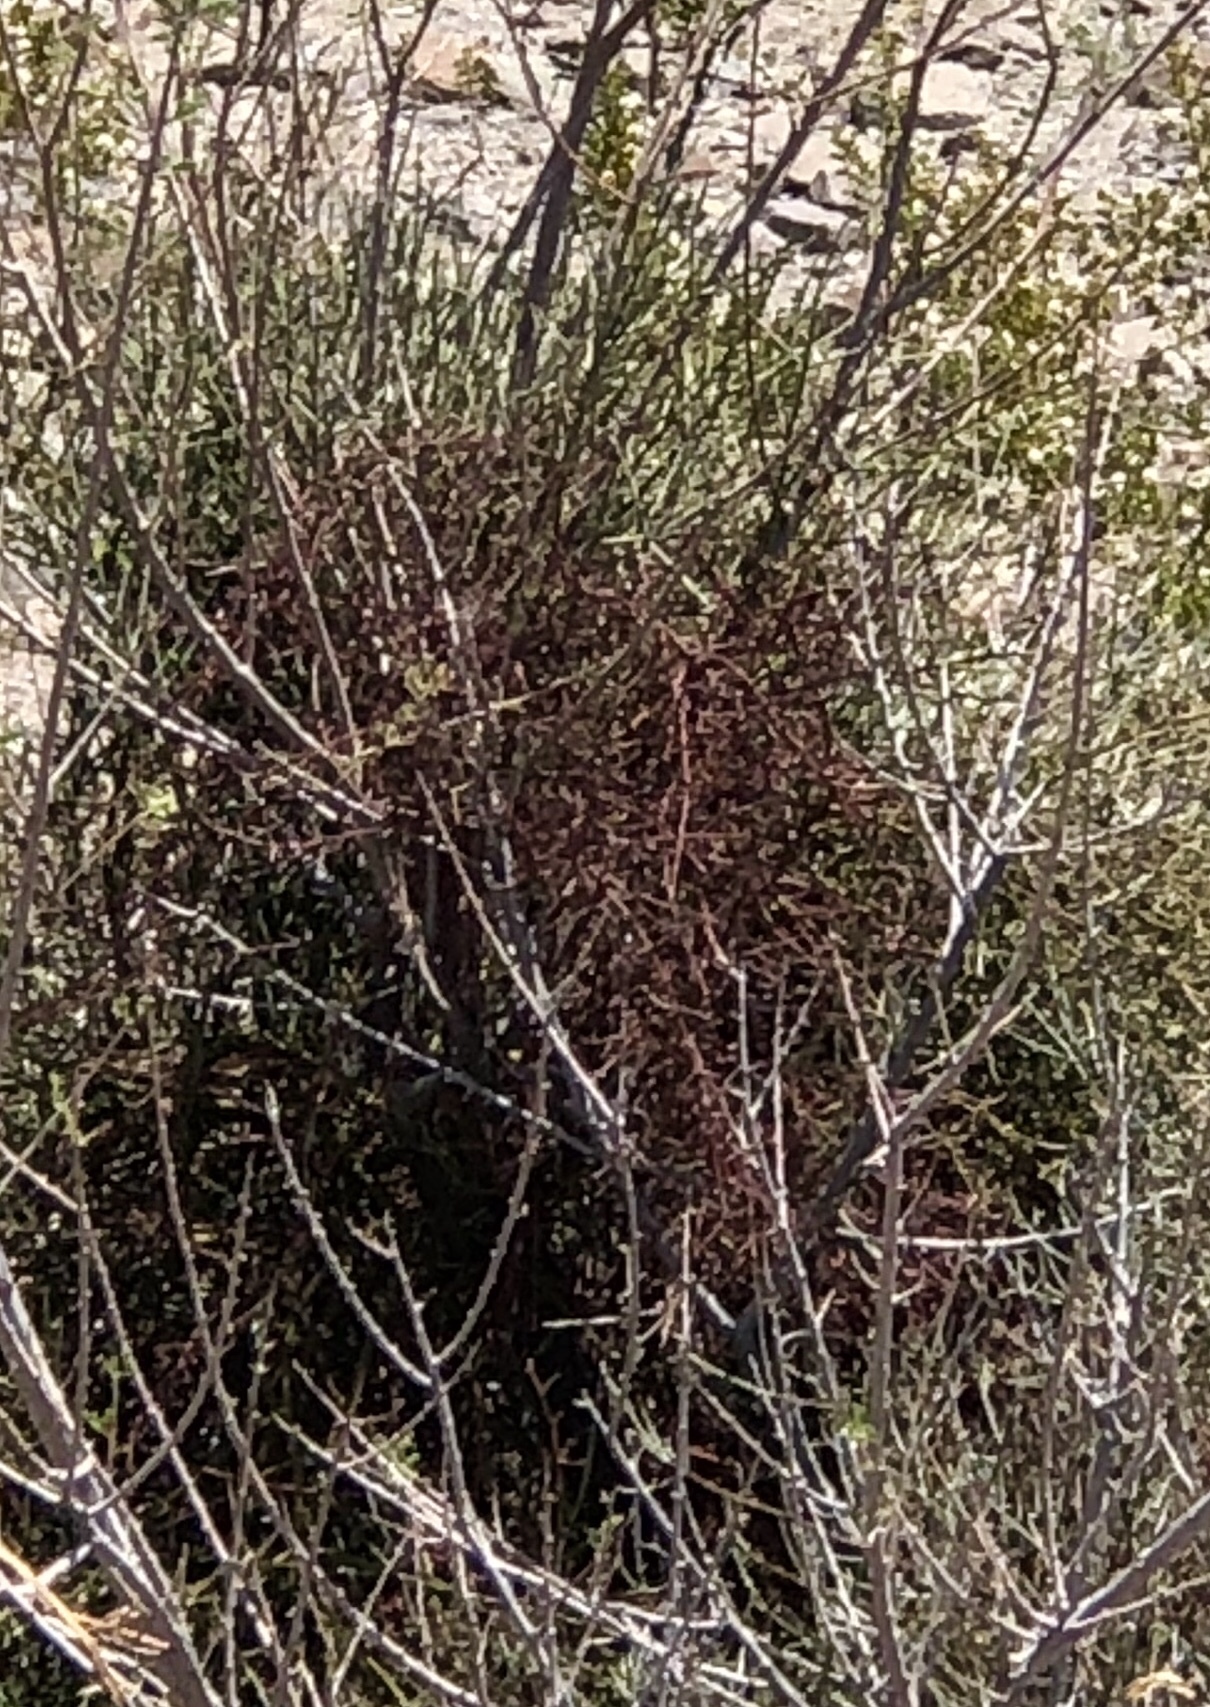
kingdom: Plantae
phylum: Tracheophyta
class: Magnoliopsida
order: Santalales
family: Viscaceae
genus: Phoradendron
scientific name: Phoradendron californicum
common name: Acacia mistletoe
